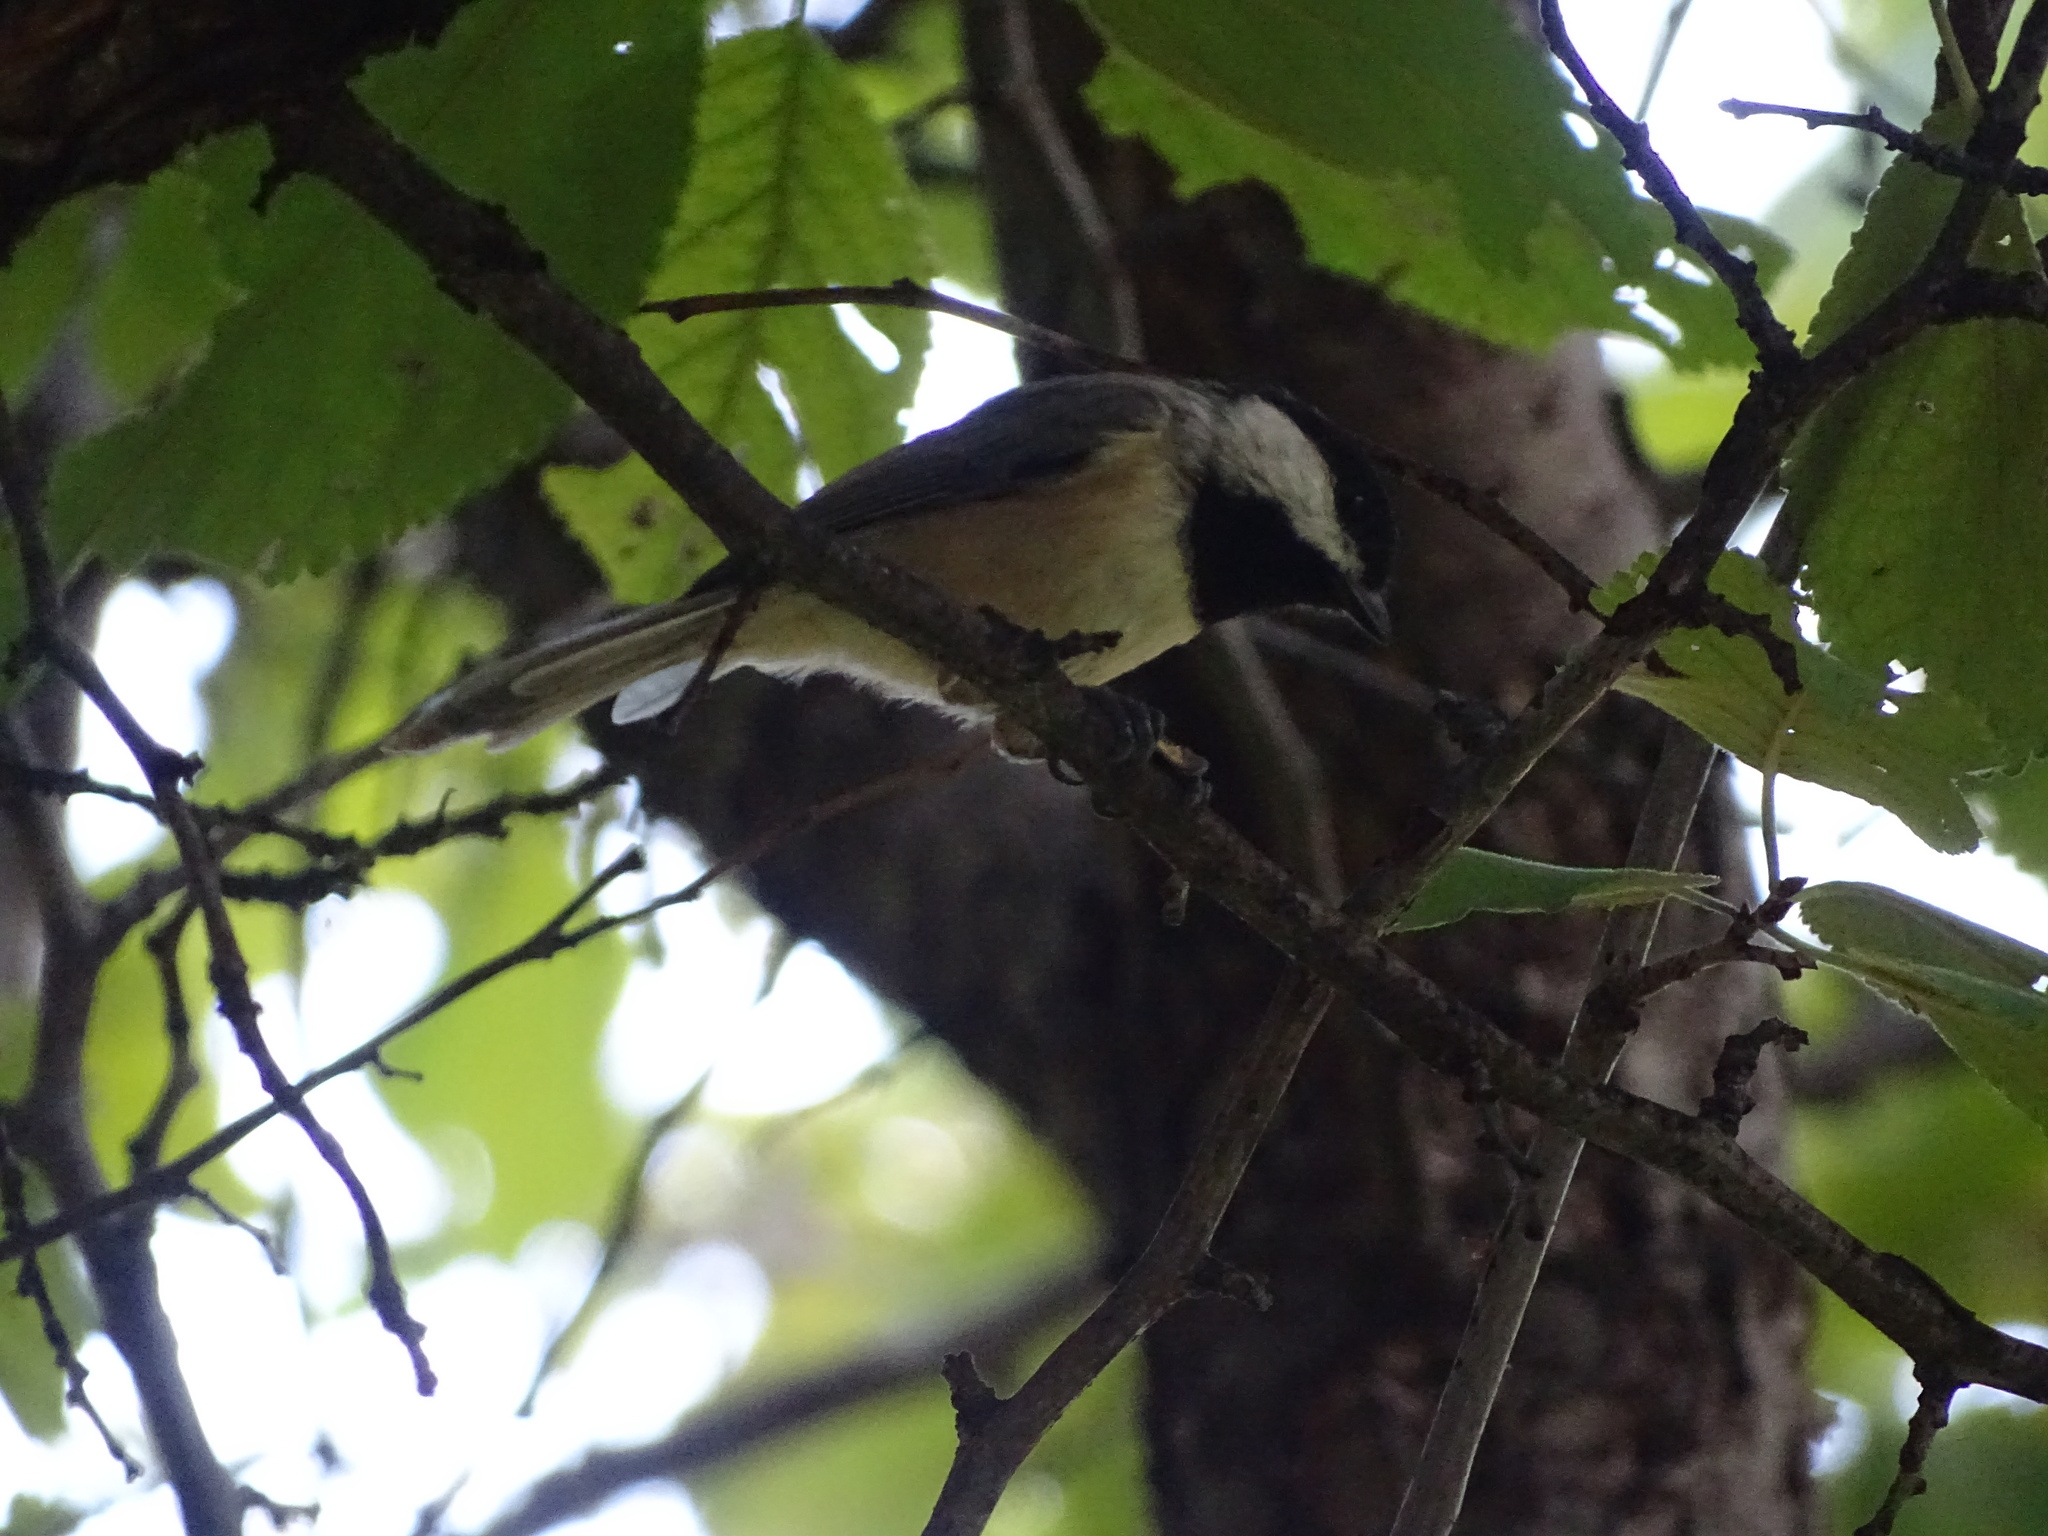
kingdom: Animalia
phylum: Chordata
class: Aves
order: Passeriformes
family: Paridae
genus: Poecile
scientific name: Poecile carolinensis
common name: Carolina chickadee
